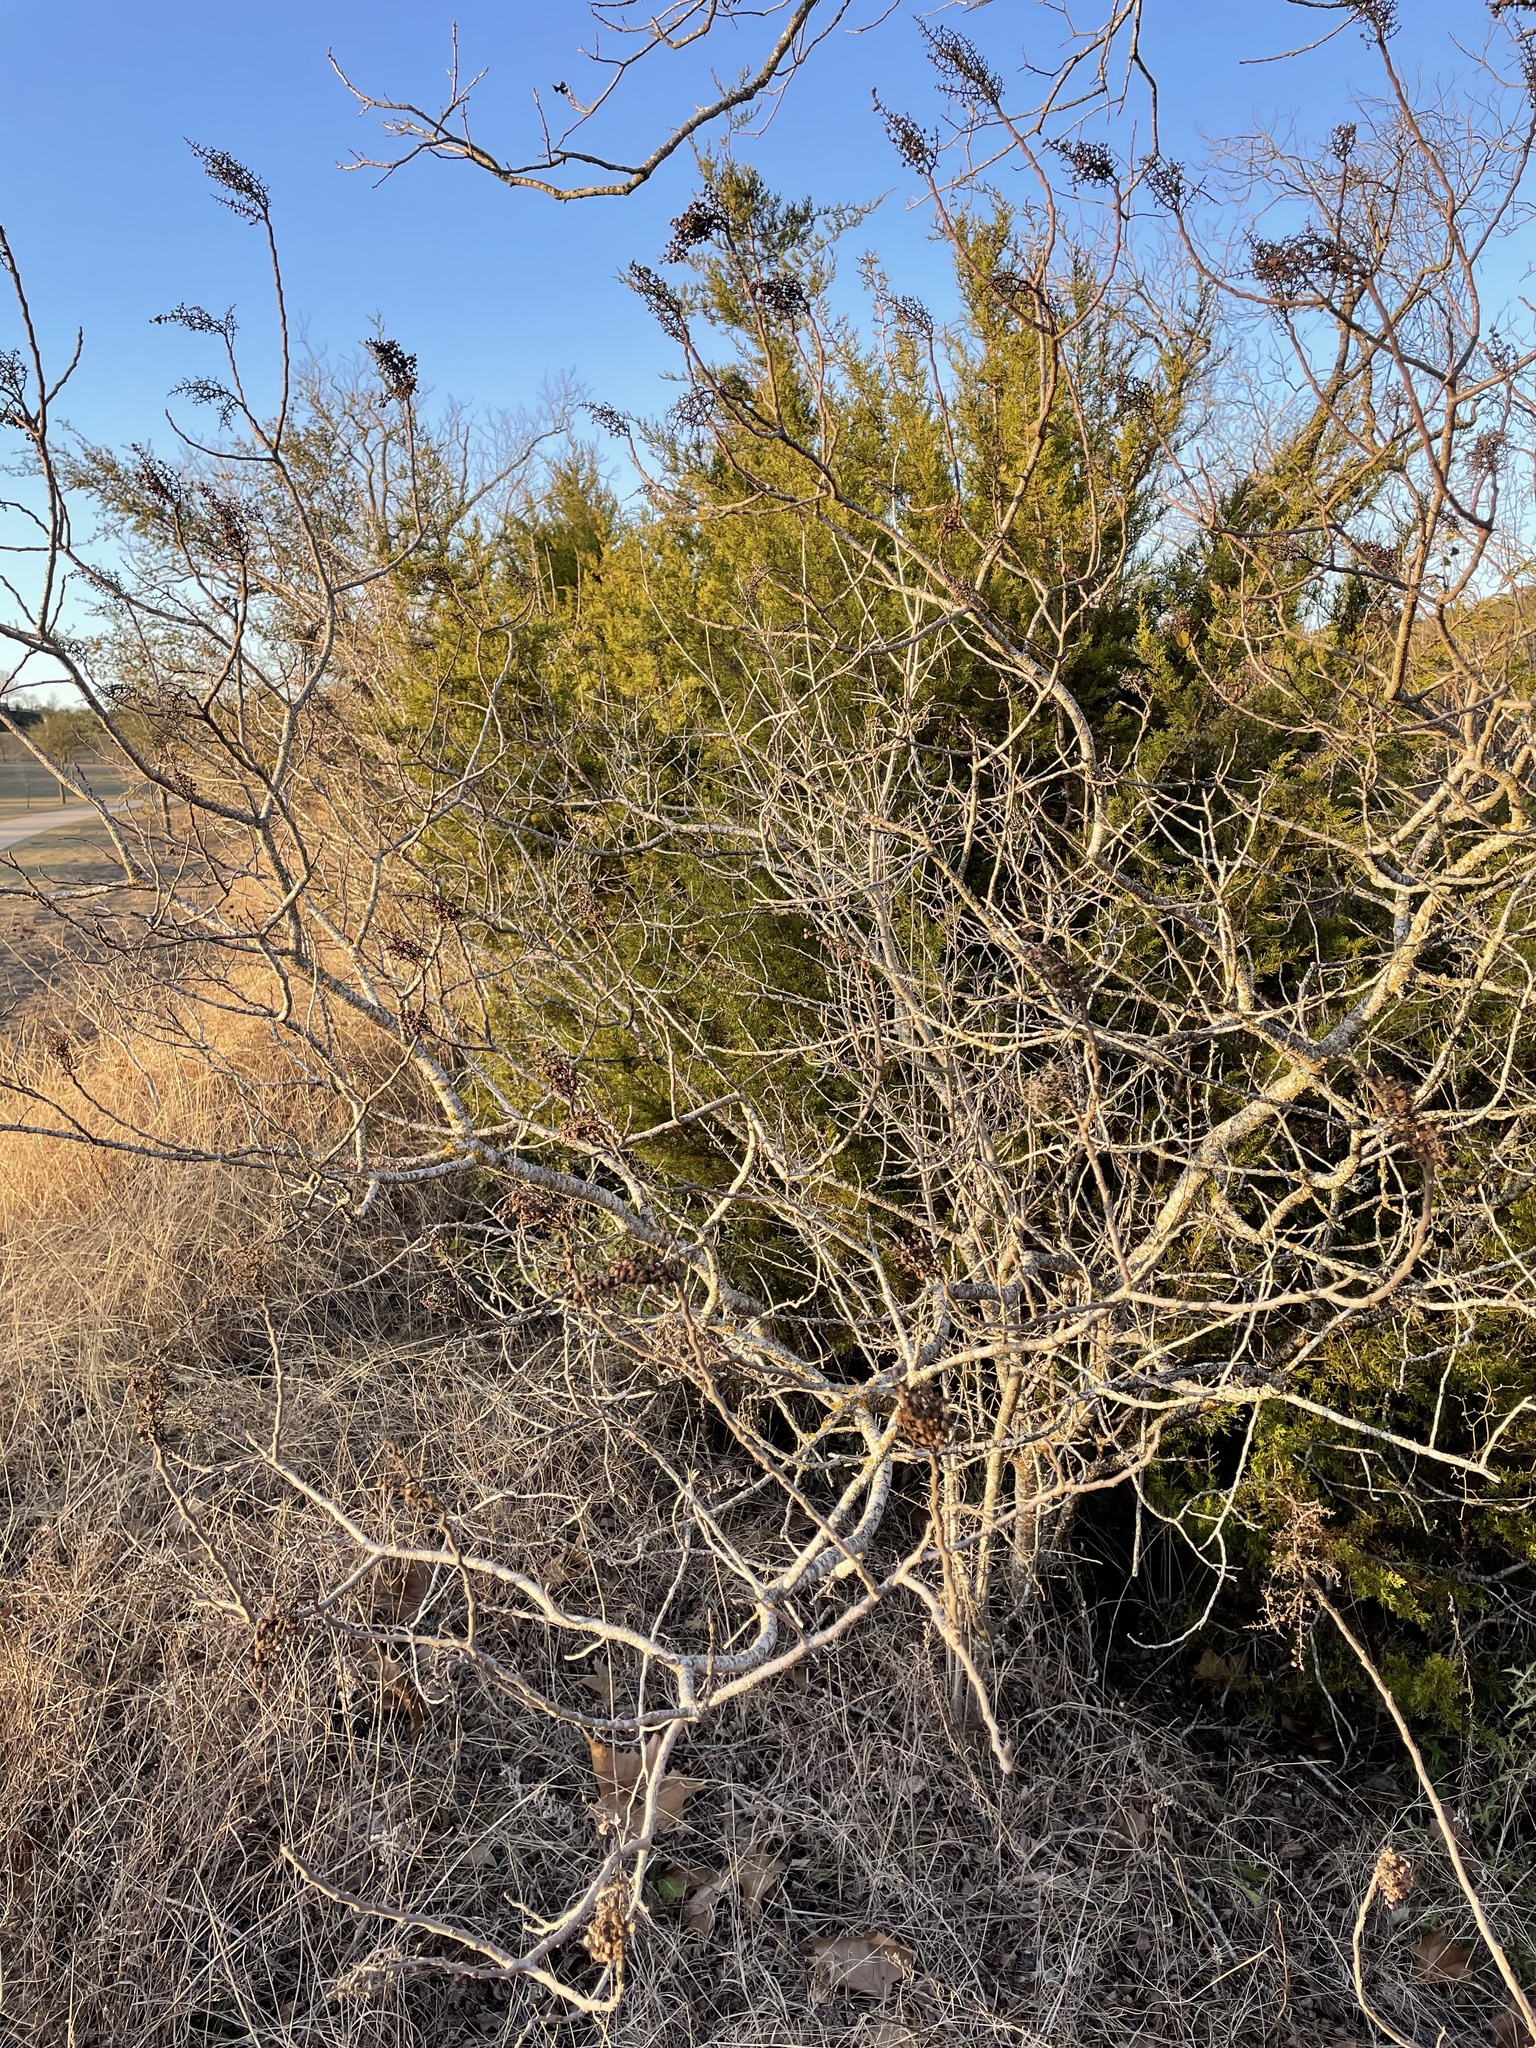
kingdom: Plantae
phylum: Tracheophyta
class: Magnoliopsida
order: Sapindales
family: Anacardiaceae
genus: Rhus
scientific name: Rhus lanceolata
